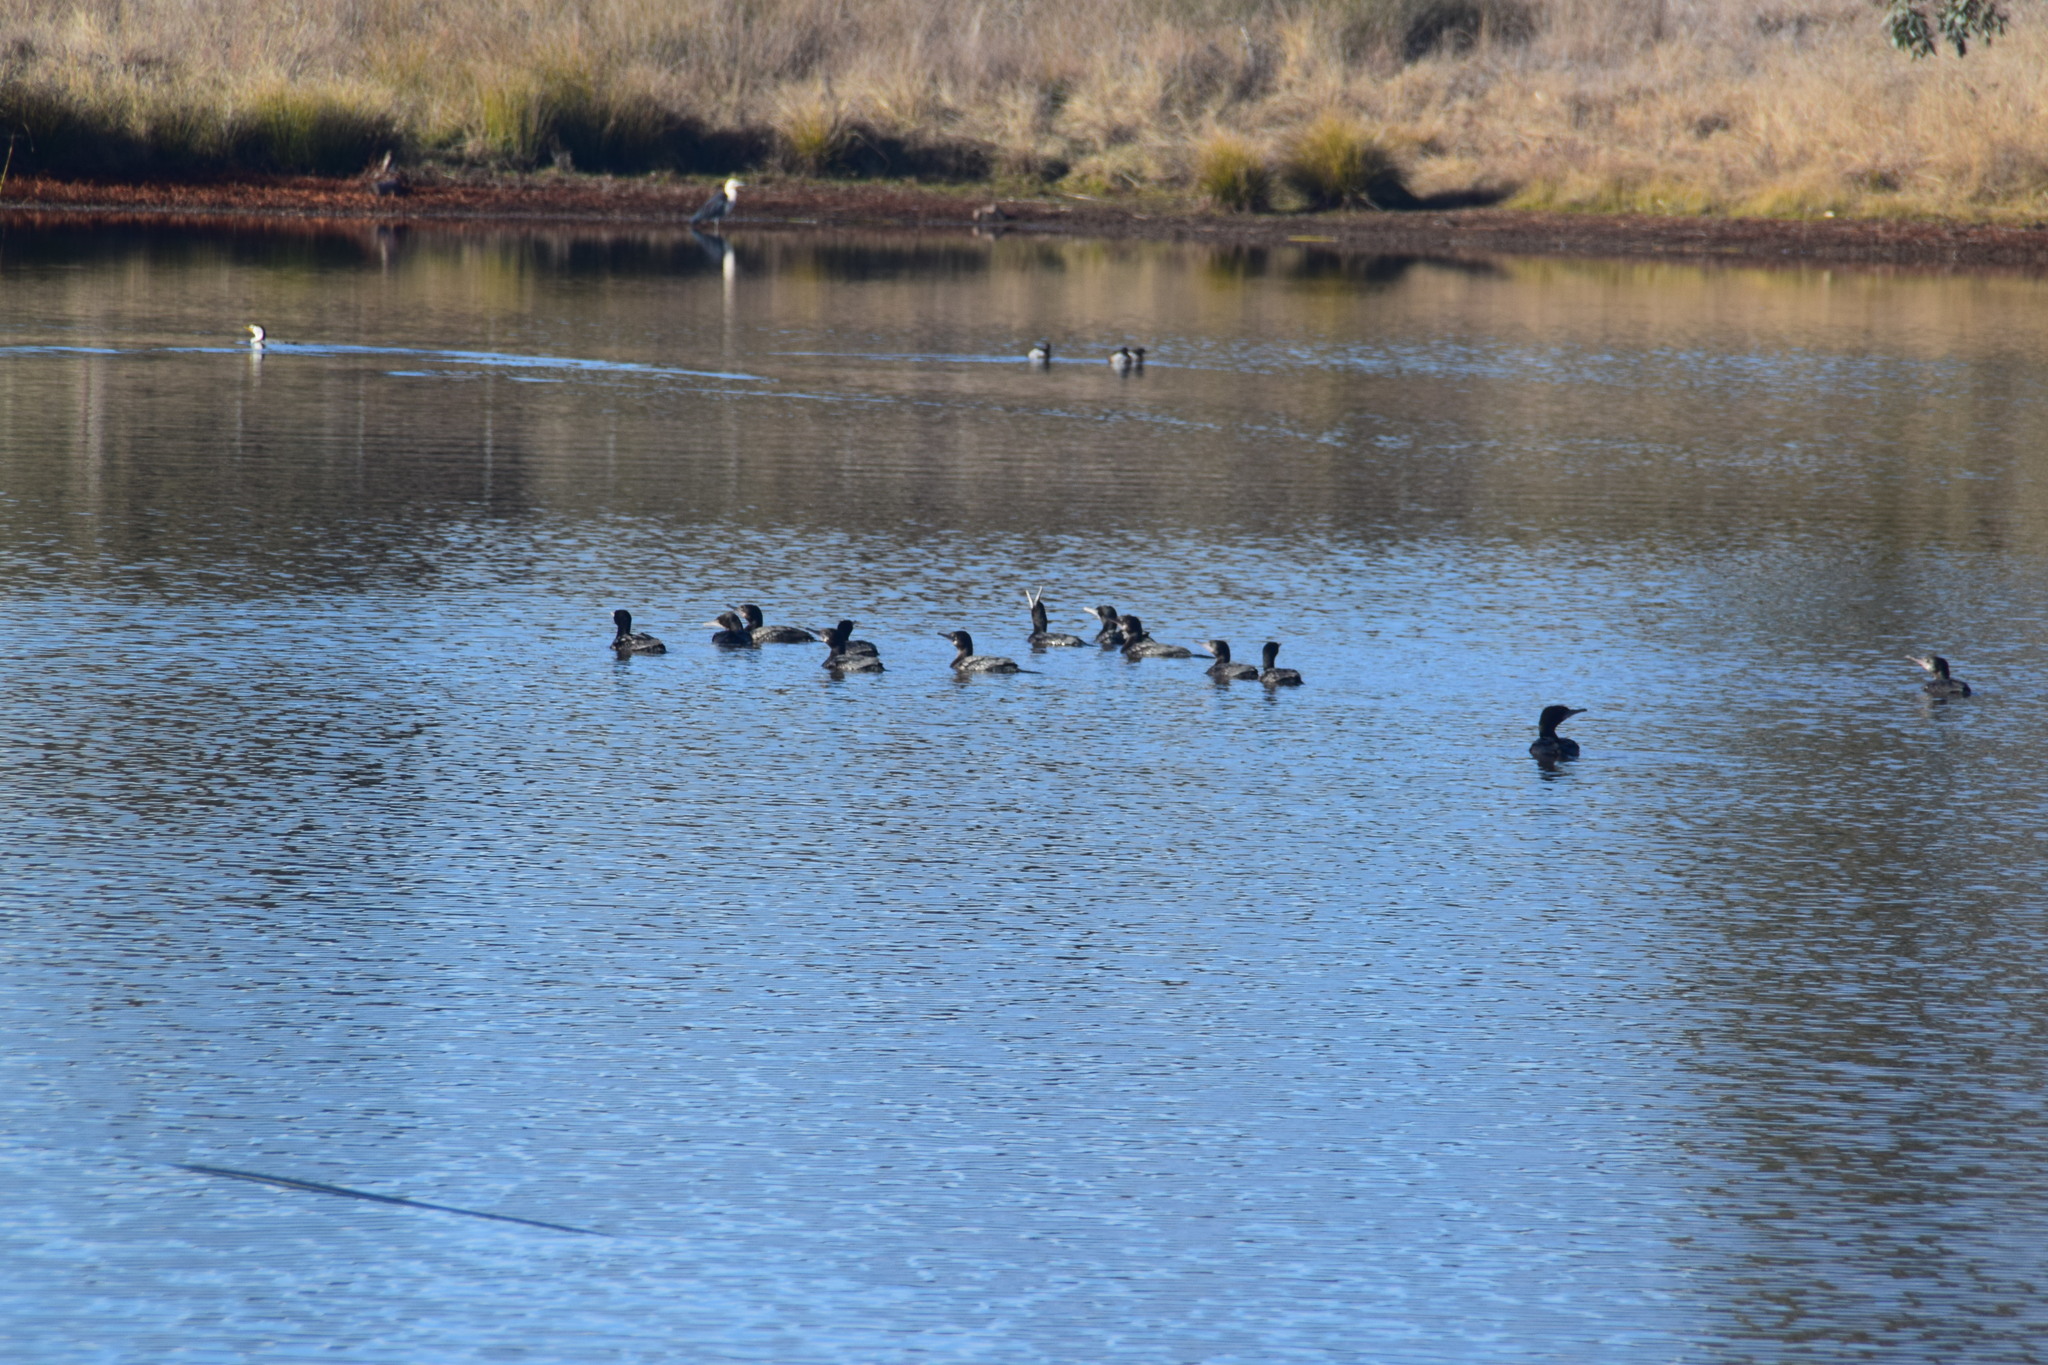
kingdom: Animalia
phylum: Chordata
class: Aves
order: Pelecaniformes
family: Ardeidae
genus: Ardea
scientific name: Ardea pacifica
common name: White-necked heron
